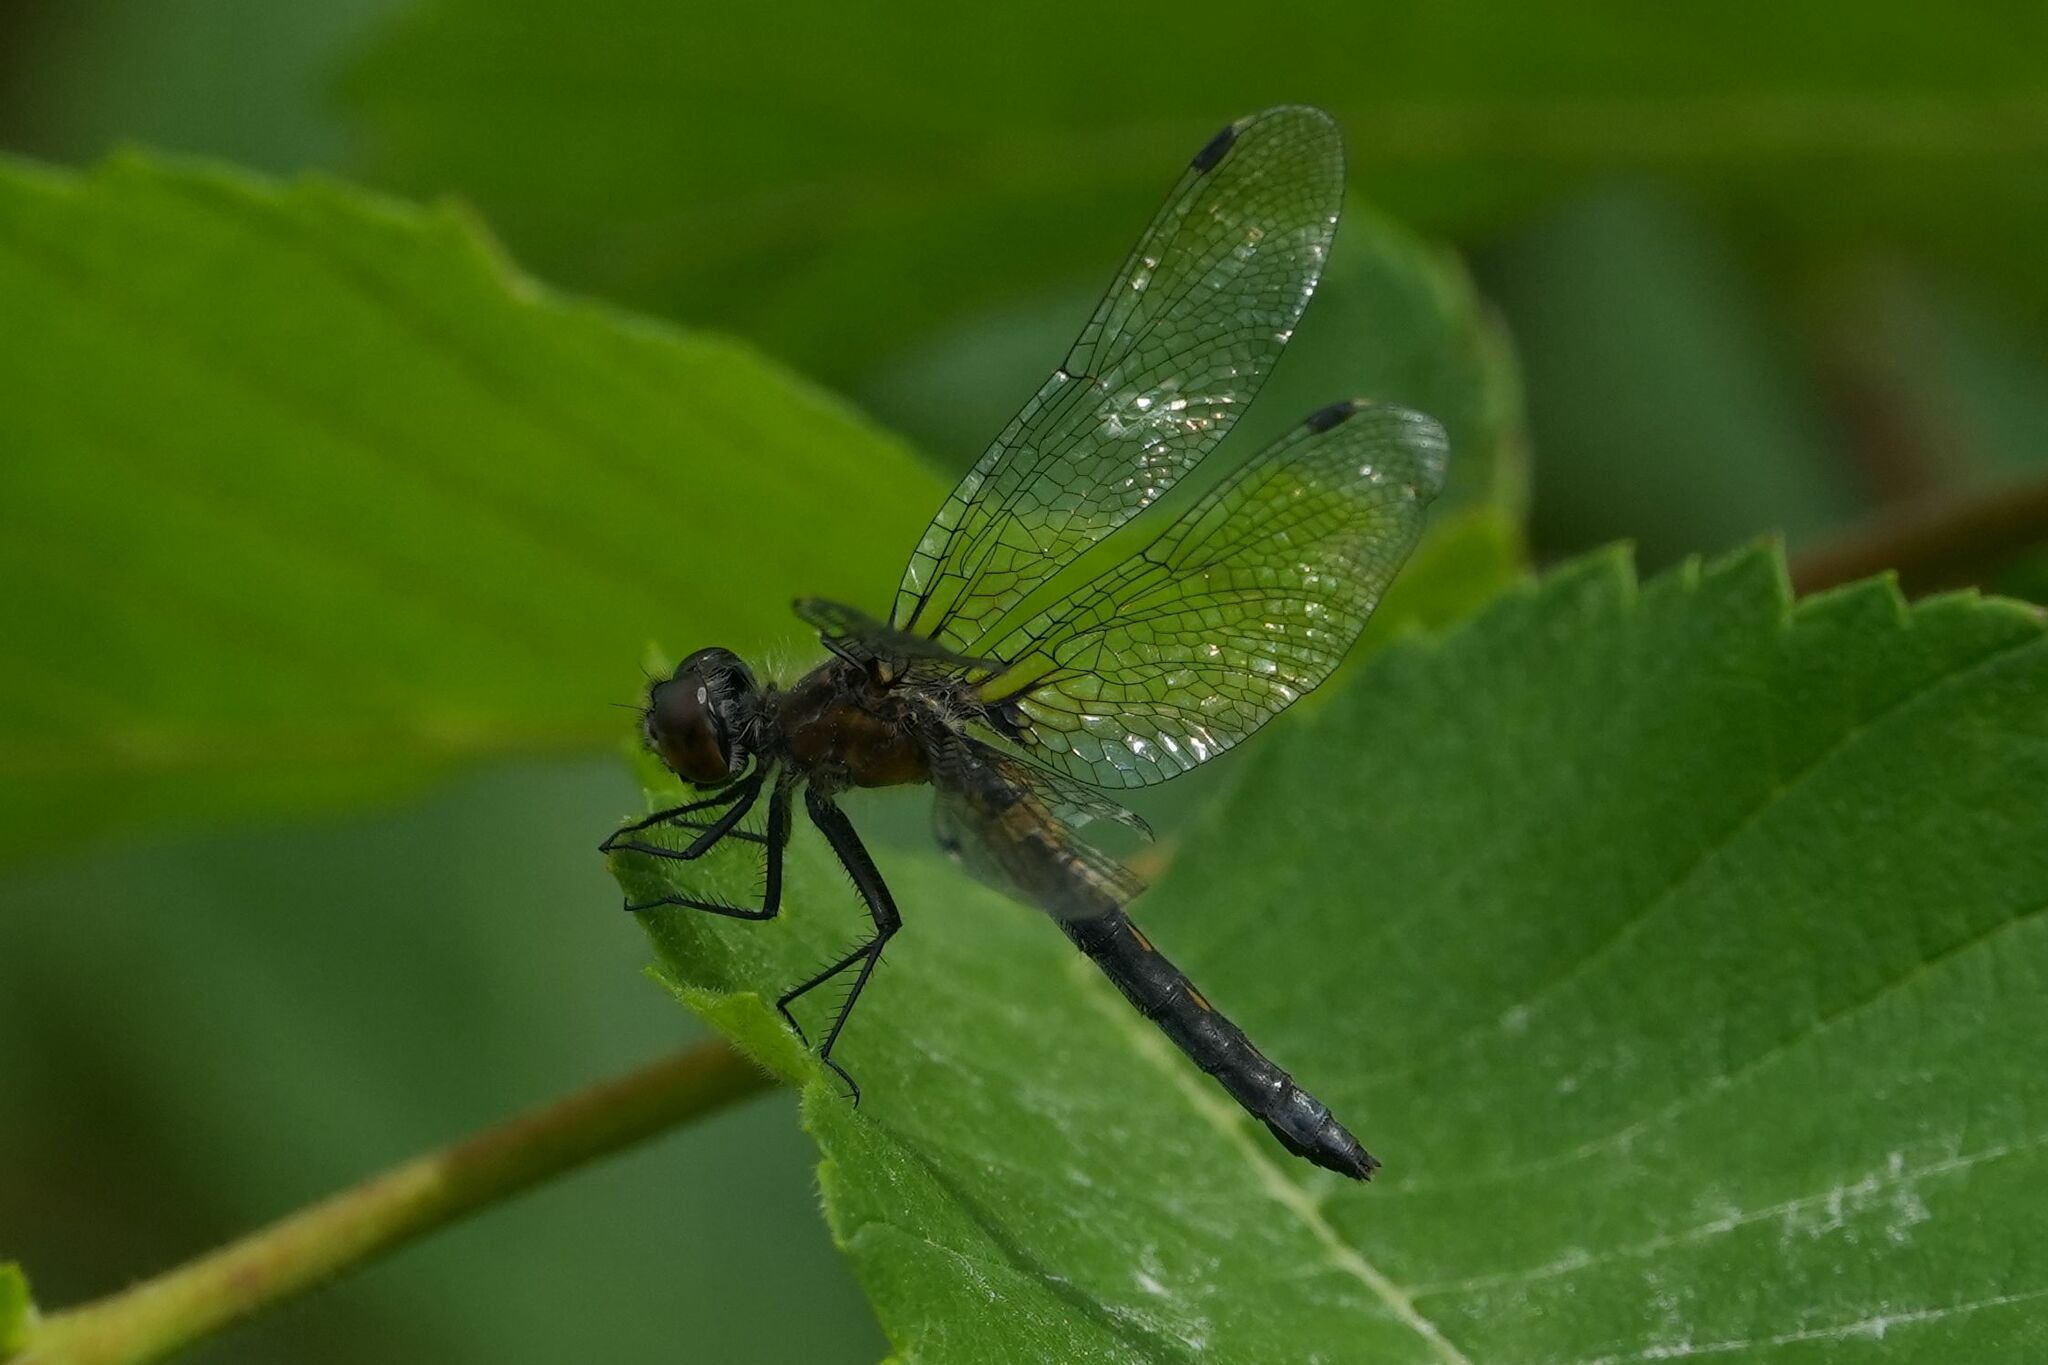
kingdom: Animalia
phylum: Arthropoda
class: Insecta
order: Odonata
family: Libellulidae
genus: Leucorrhinia
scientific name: Leucorrhinia frigida
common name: Frosted whiteface
